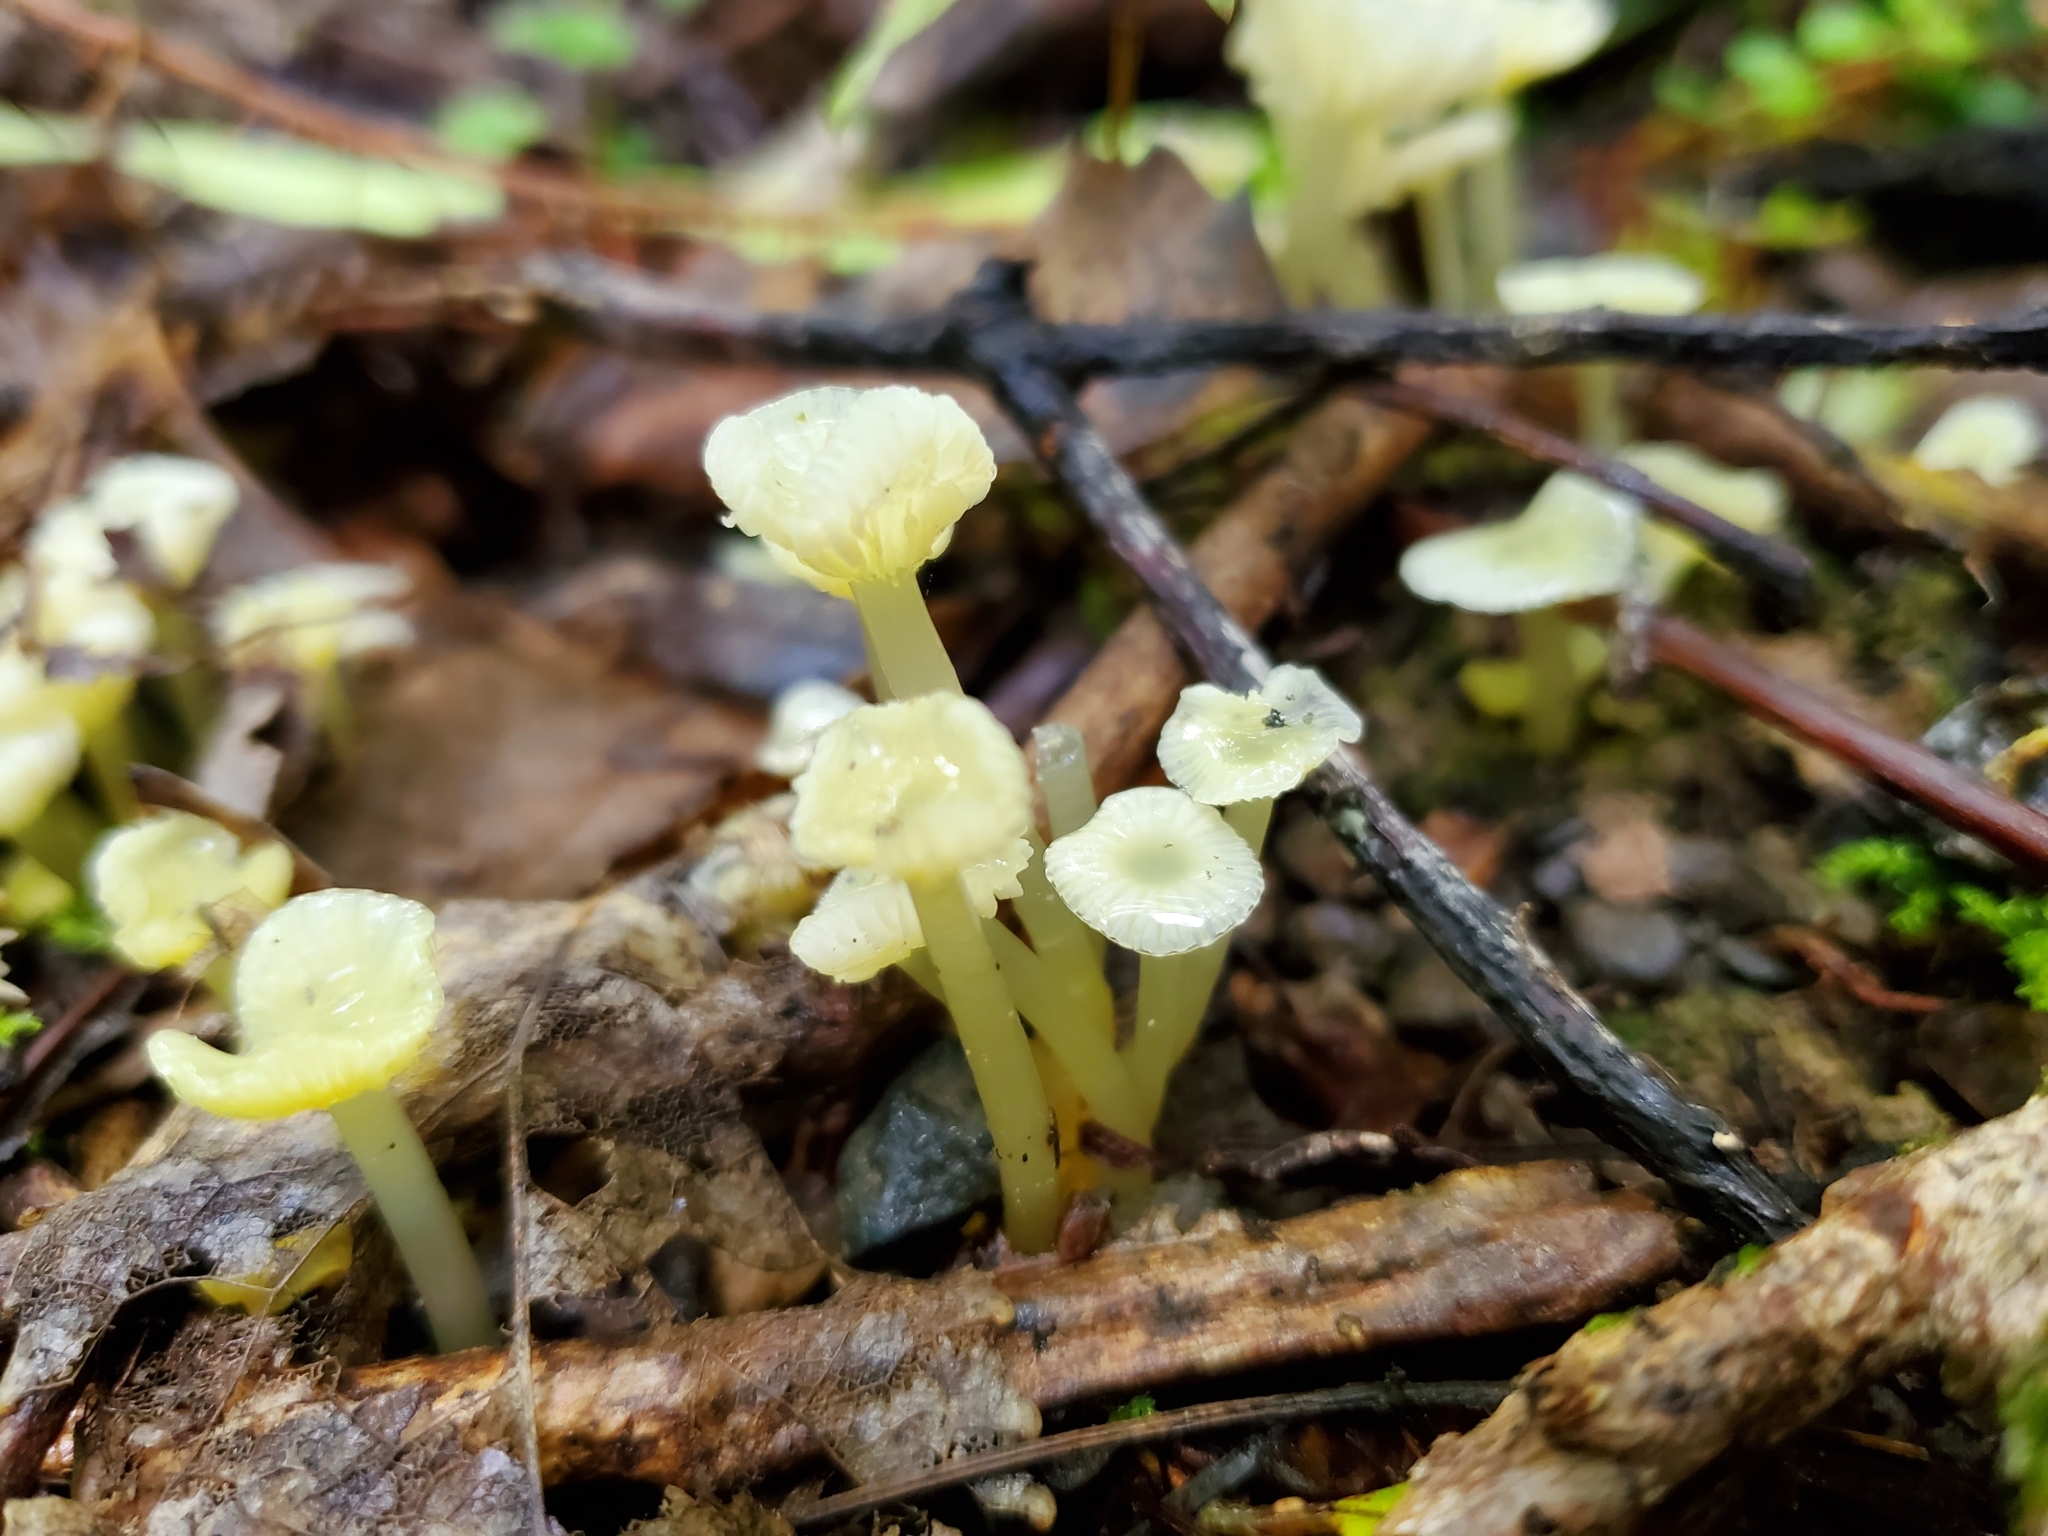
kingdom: Fungi
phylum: Basidiomycota
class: Agaricomycetes
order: Agaricales
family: Hygrophoraceae
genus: Gloioxanthomyces
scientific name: Gloioxanthomyces
